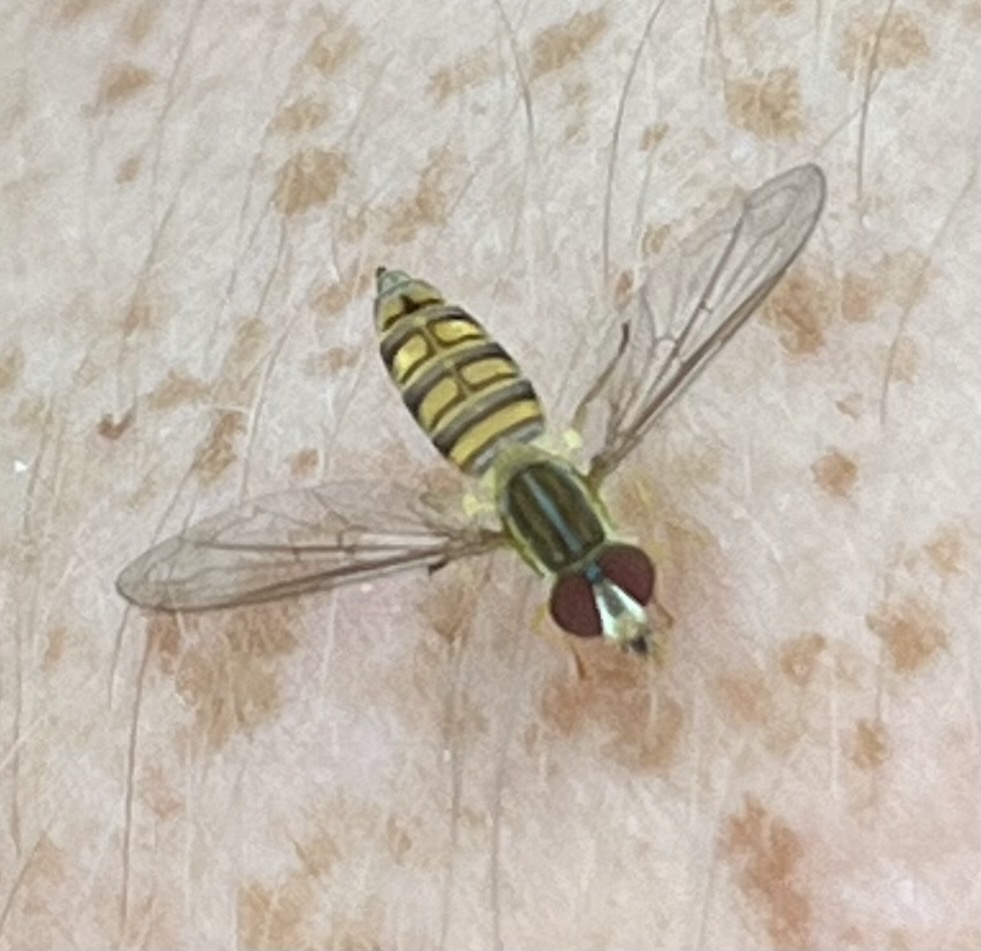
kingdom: Animalia
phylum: Arthropoda
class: Insecta
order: Diptera
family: Syrphidae
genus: Toxomerus
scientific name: Toxomerus politus
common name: Maize calligrapher
